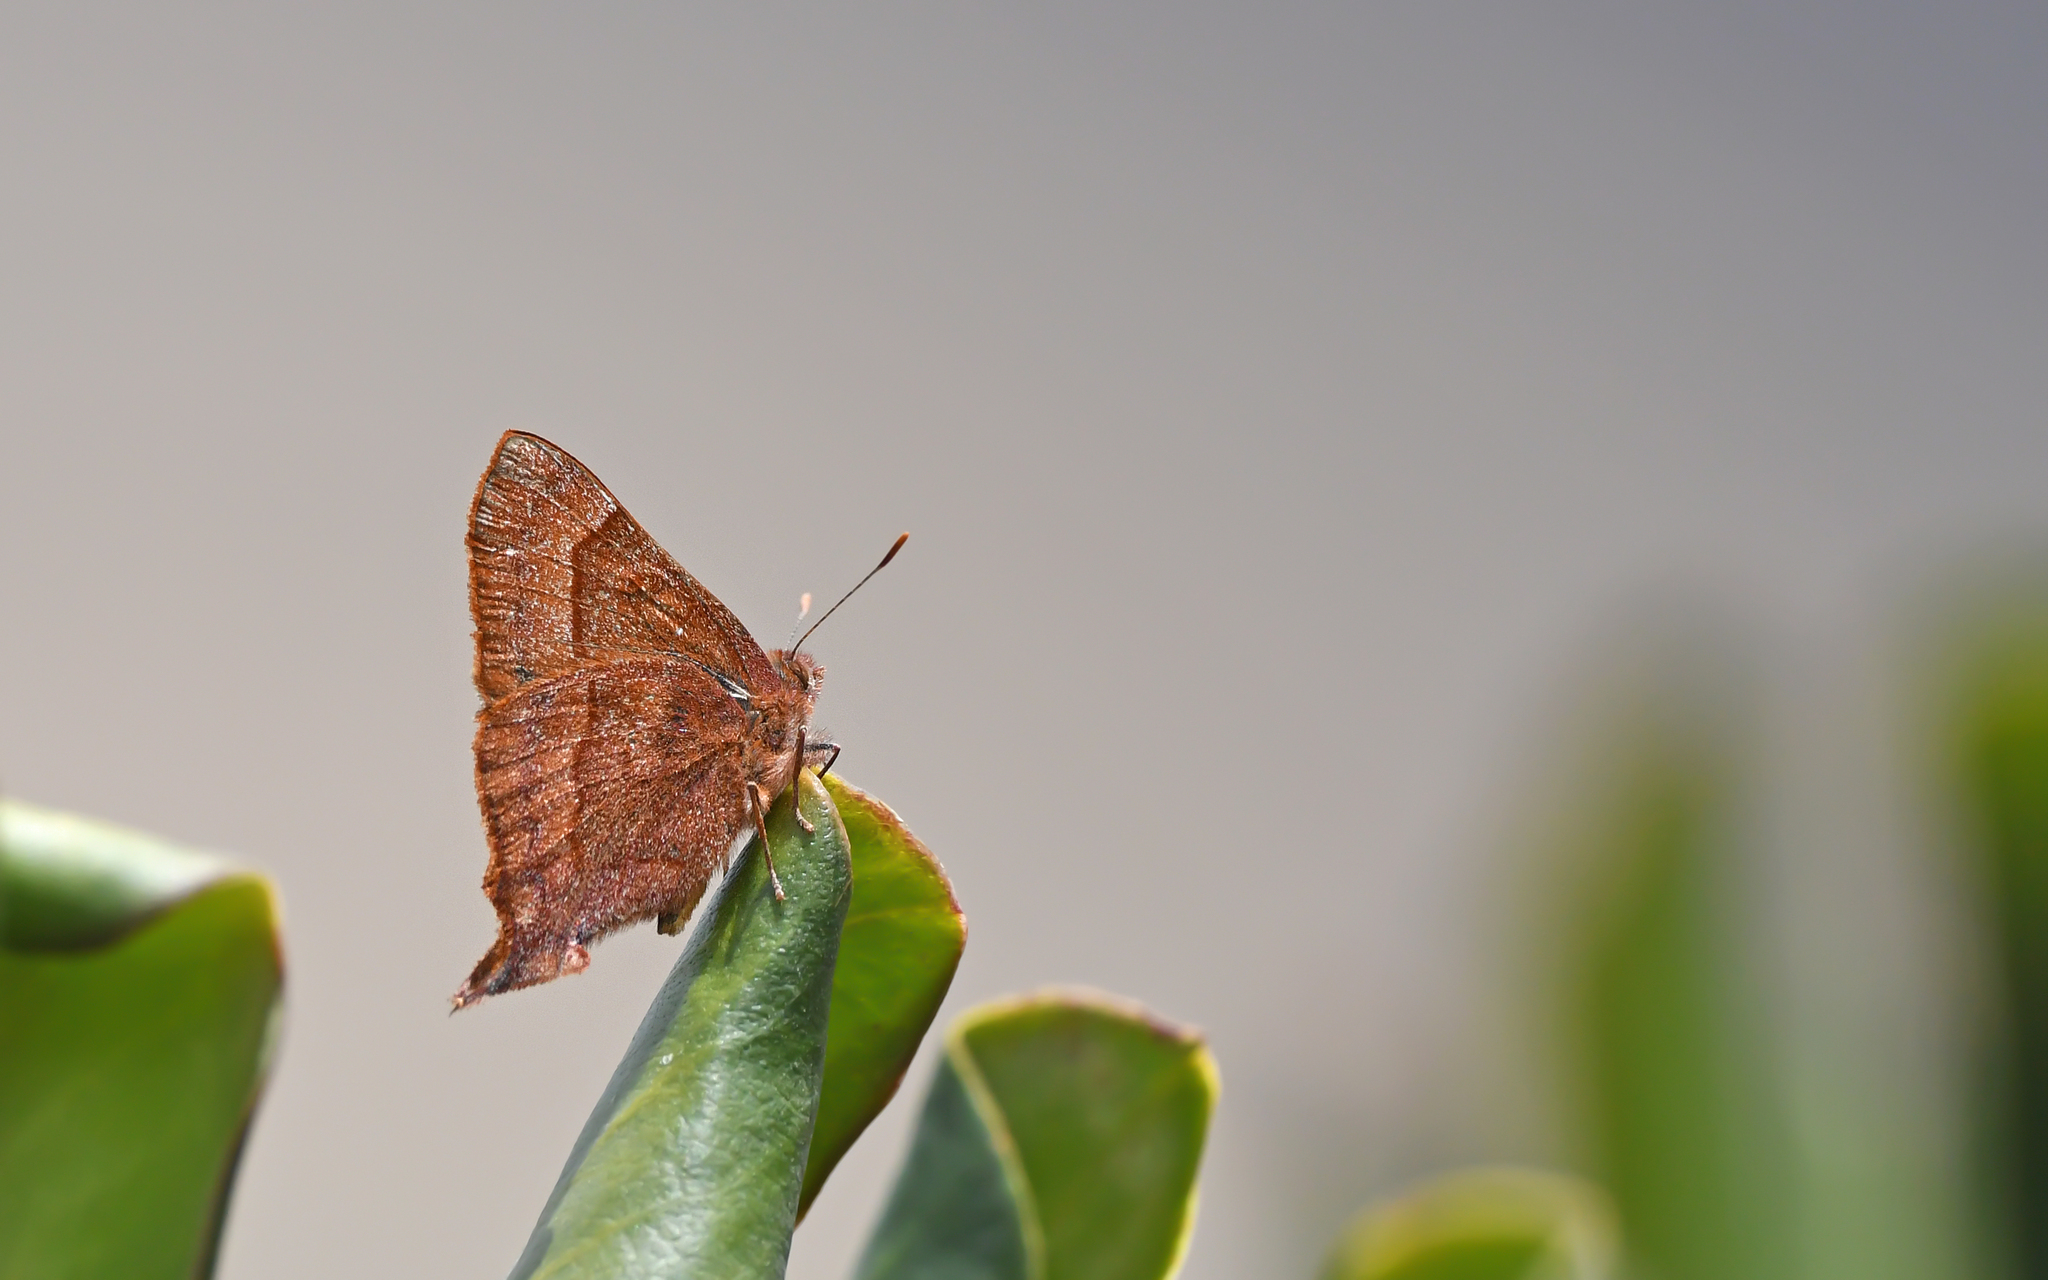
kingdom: Animalia
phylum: Arthropoda
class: Insecta
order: Lepidoptera
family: Lycaenidae
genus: Penaincisalia
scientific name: Penaincisalia
